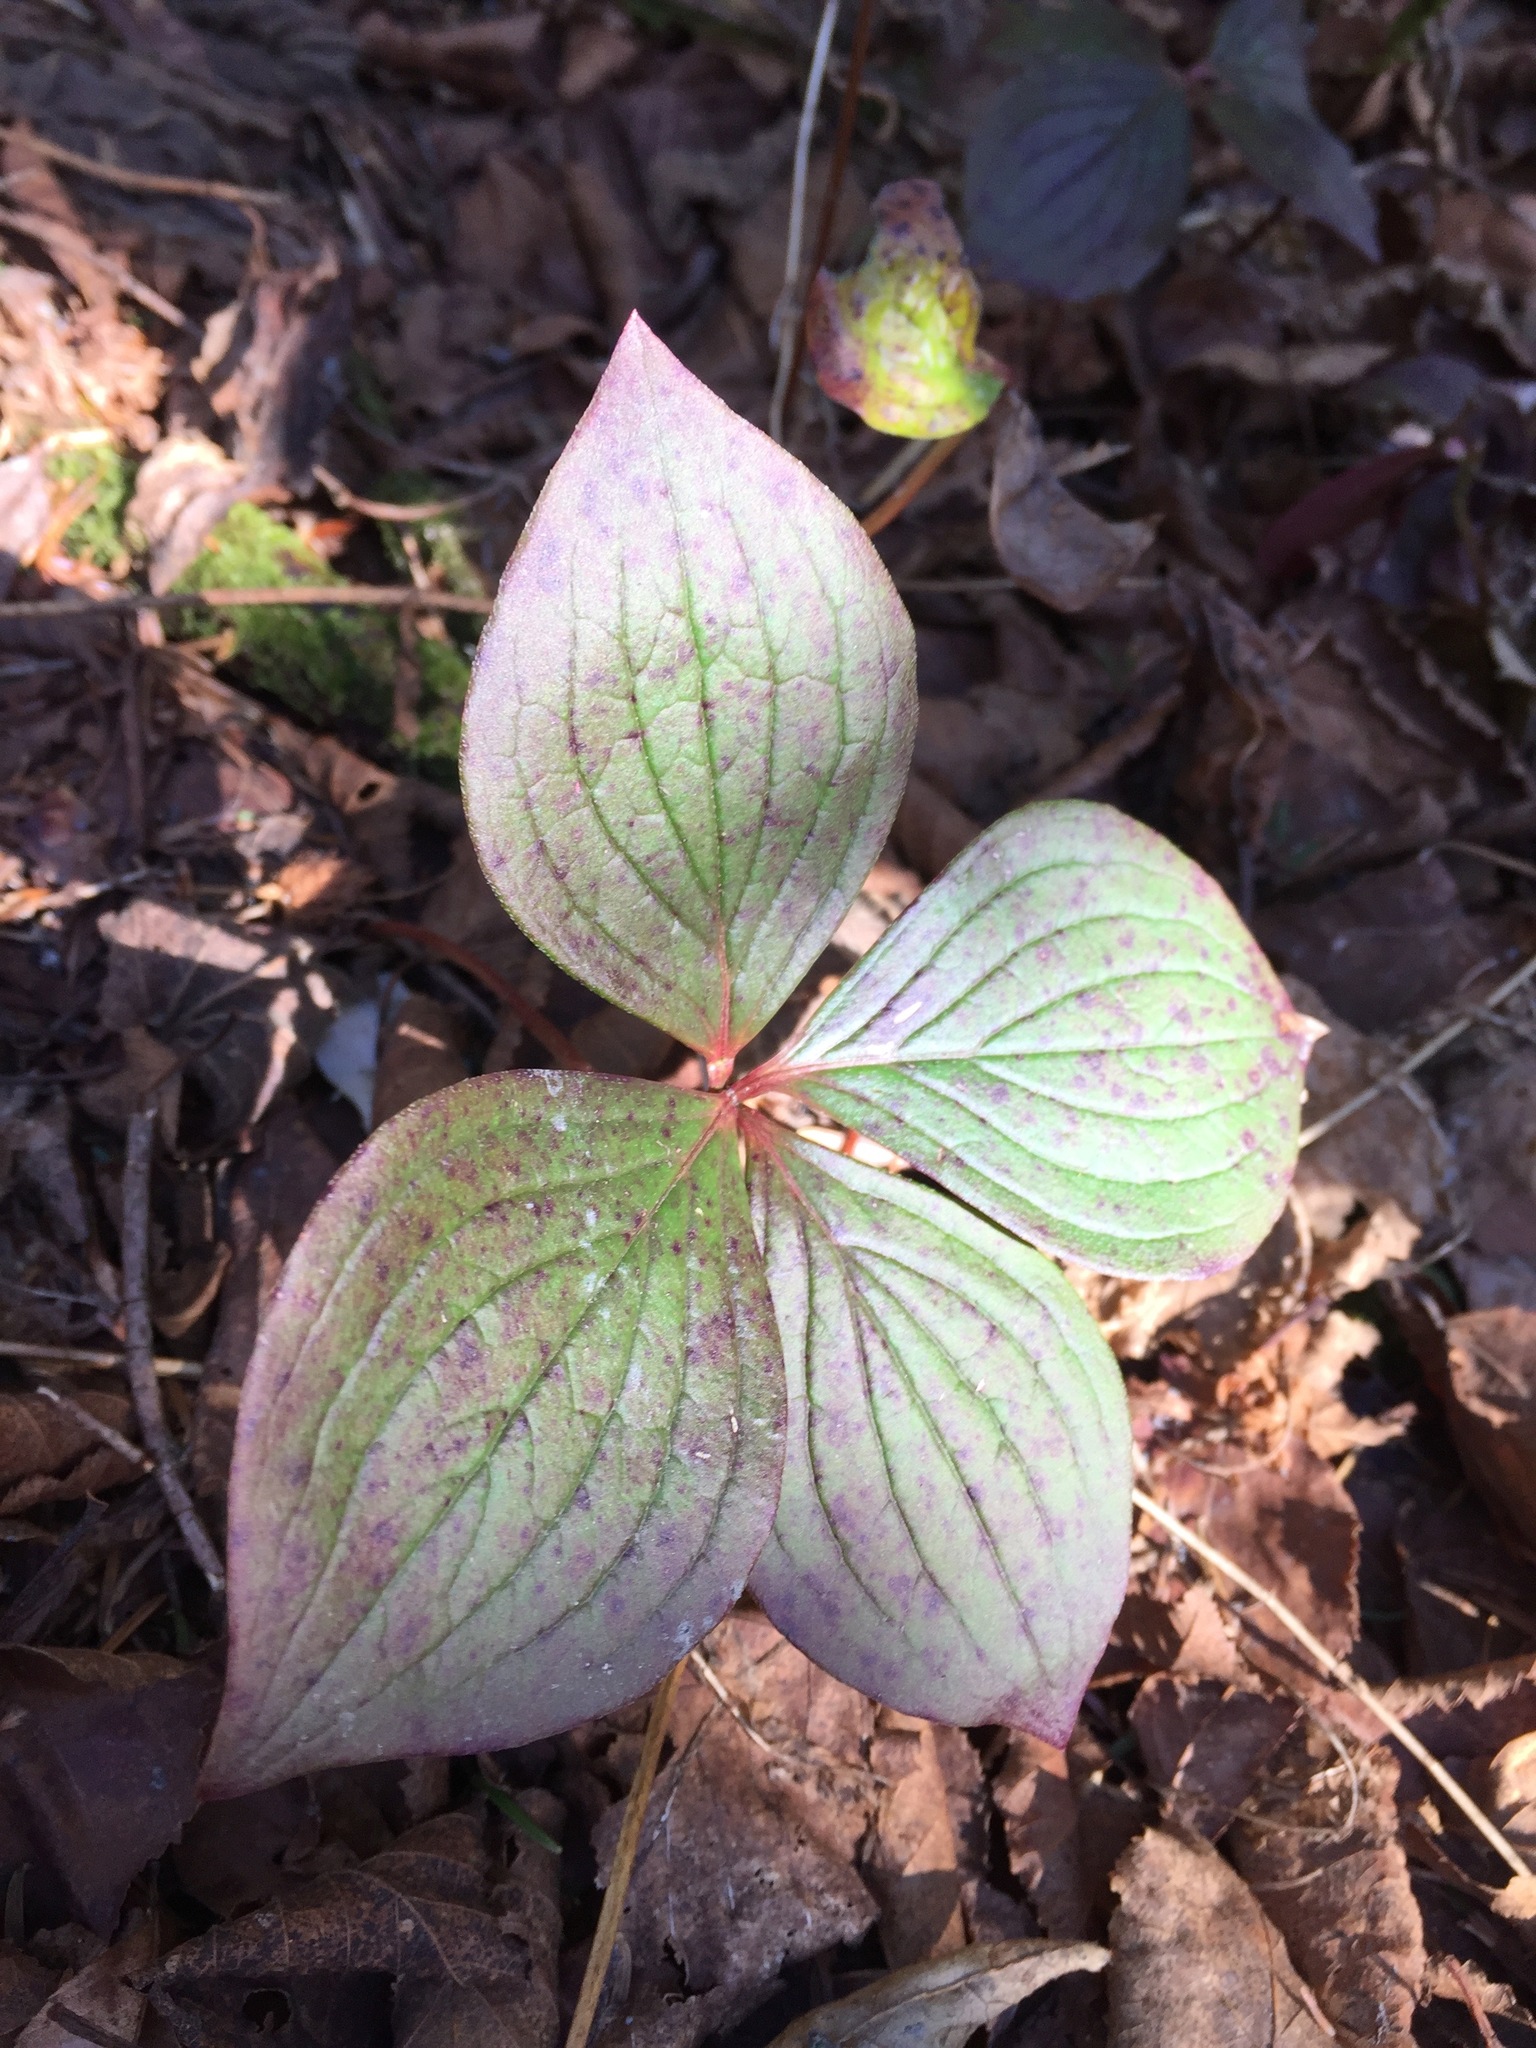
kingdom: Plantae
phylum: Tracheophyta
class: Magnoliopsida
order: Cornales
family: Cornaceae
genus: Cornus
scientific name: Cornus canadensis
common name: Creeping dogwood
